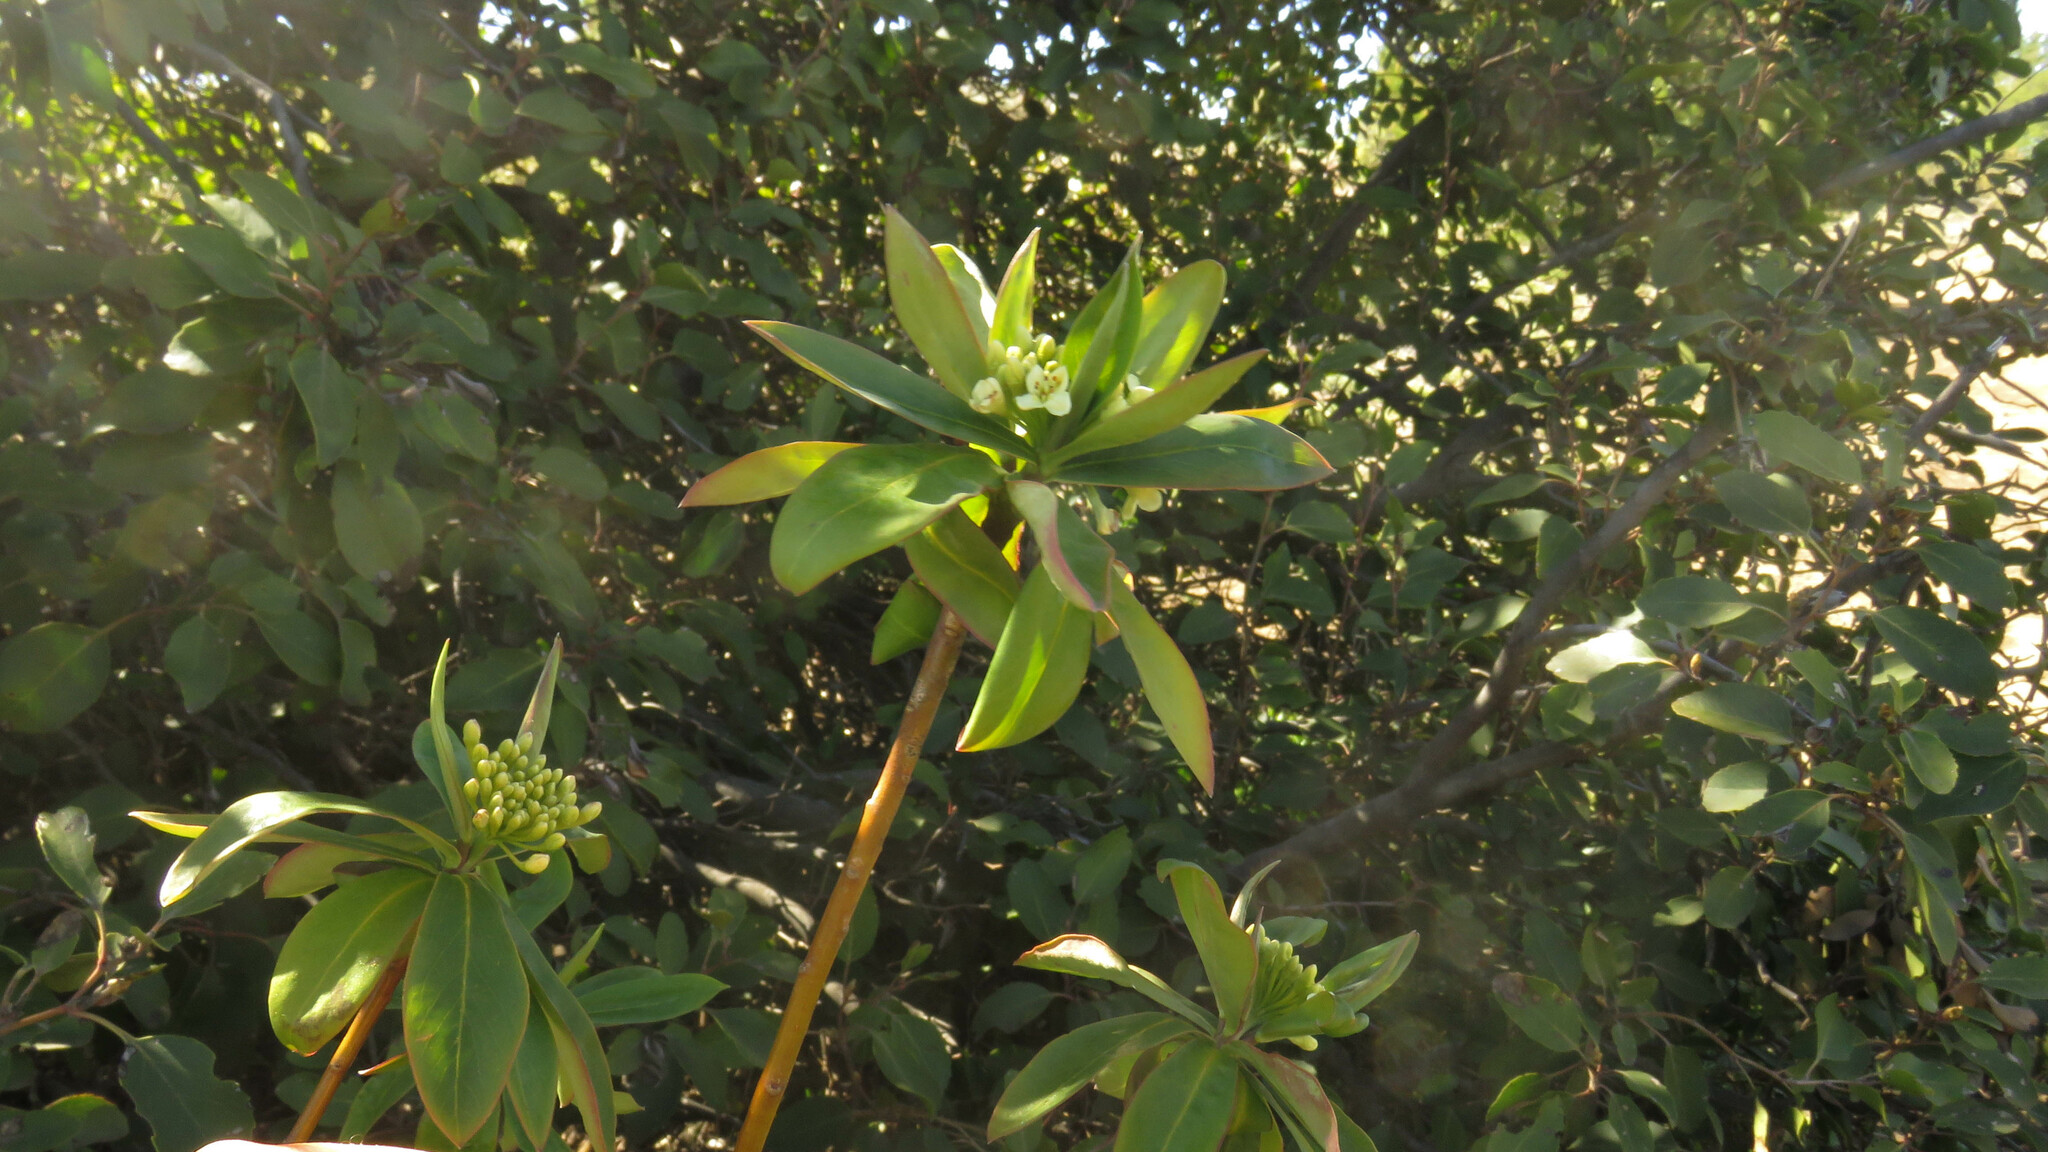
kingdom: Plantae
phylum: Tracheophyta
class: Magnoliopsida
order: Malvales
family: Thymelaeaceae
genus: Ovidia
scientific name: Ovidia andina
